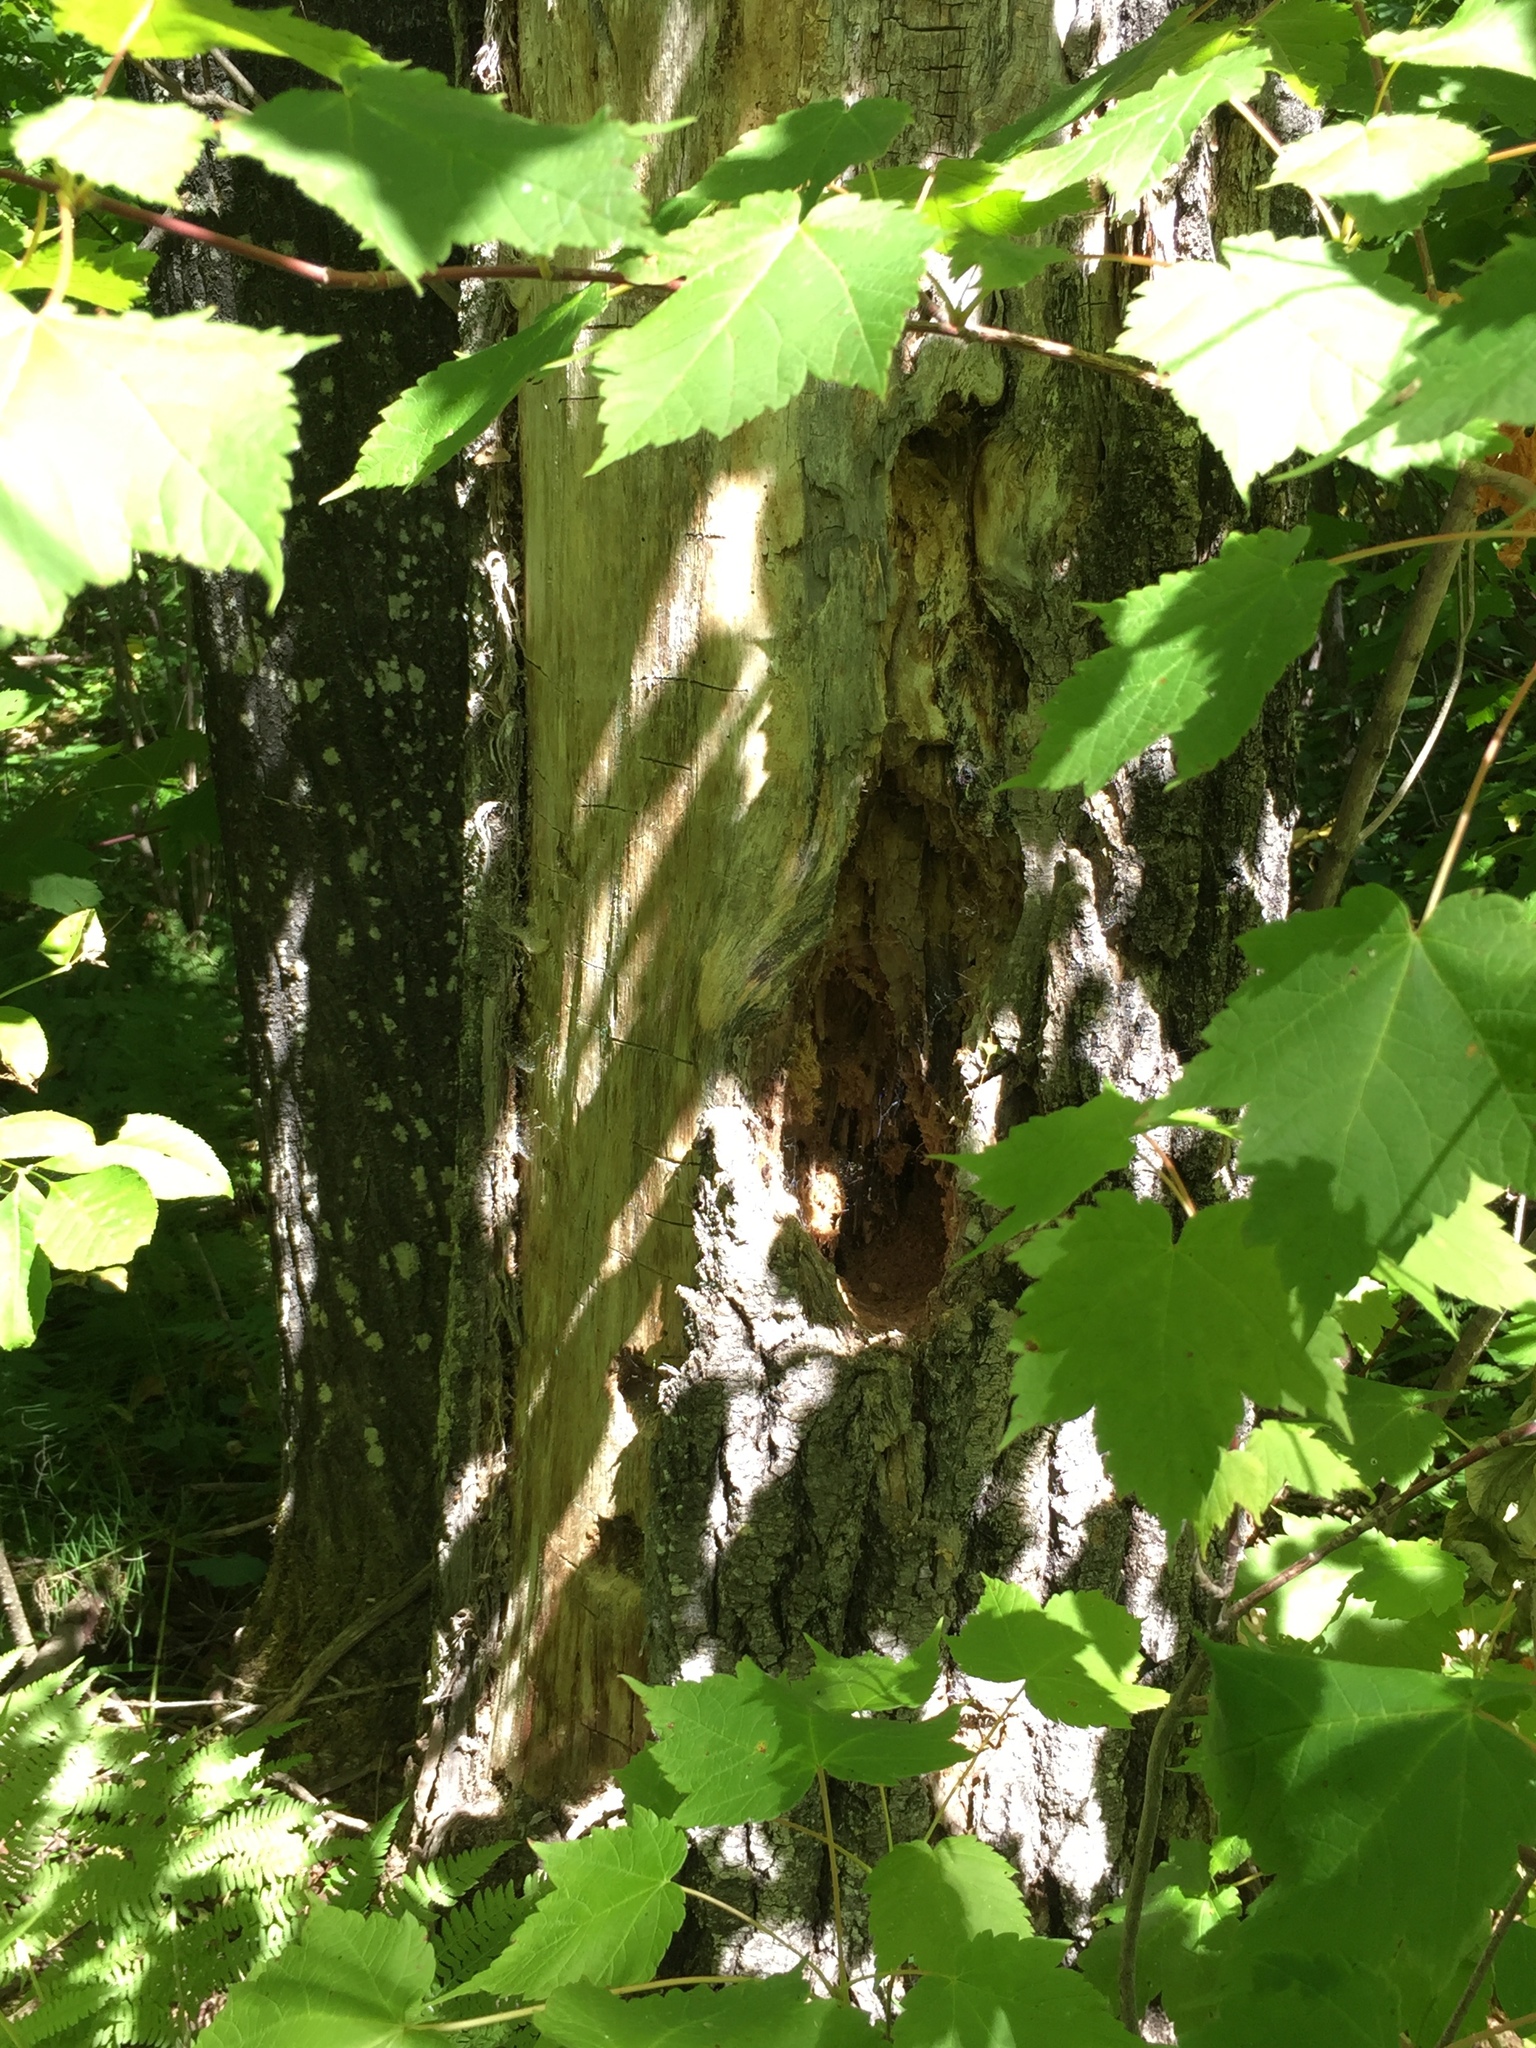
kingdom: Animalia
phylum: Chordata
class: Aves
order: Piciformes
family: Picidae
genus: Dryocopus
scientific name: Dryocopus pileatus
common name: Pileated woodpecker
